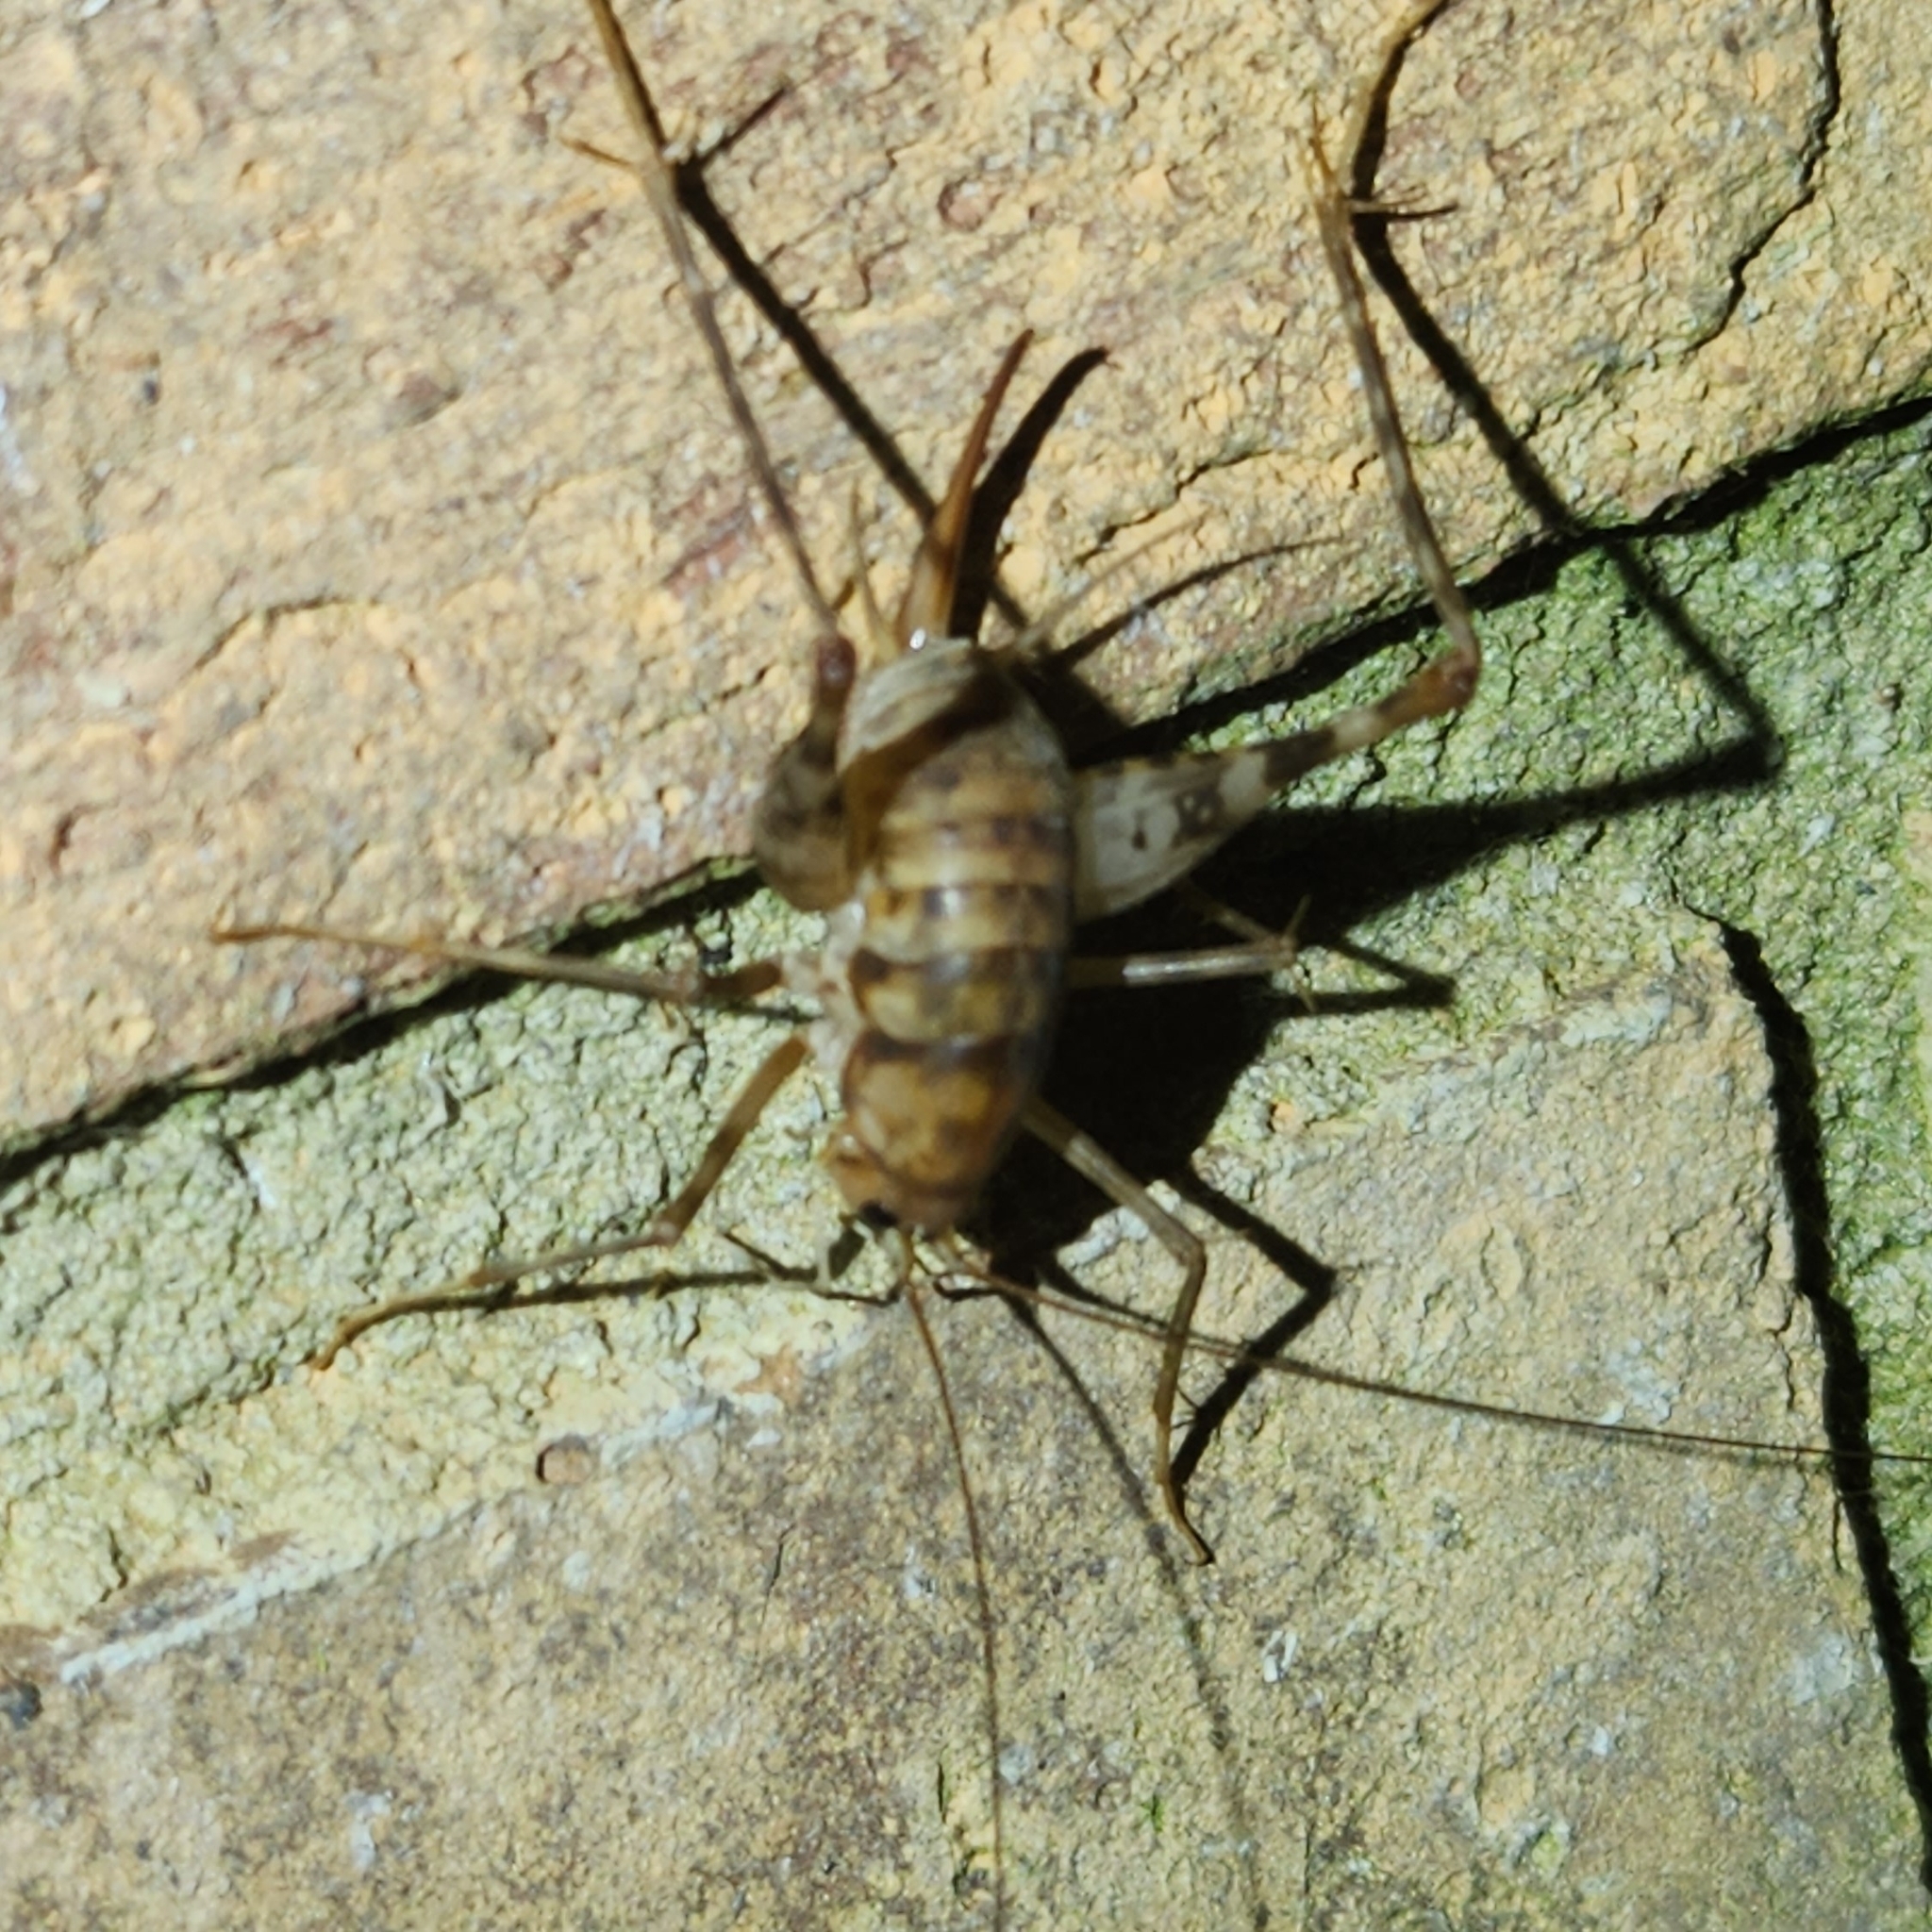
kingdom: Animalia
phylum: Arthropoda
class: Insecta
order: Orthoptera
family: Rhaphidophoridae
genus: Tachycines
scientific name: Tachycines asynamorus
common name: Greenhouse camel cricket
